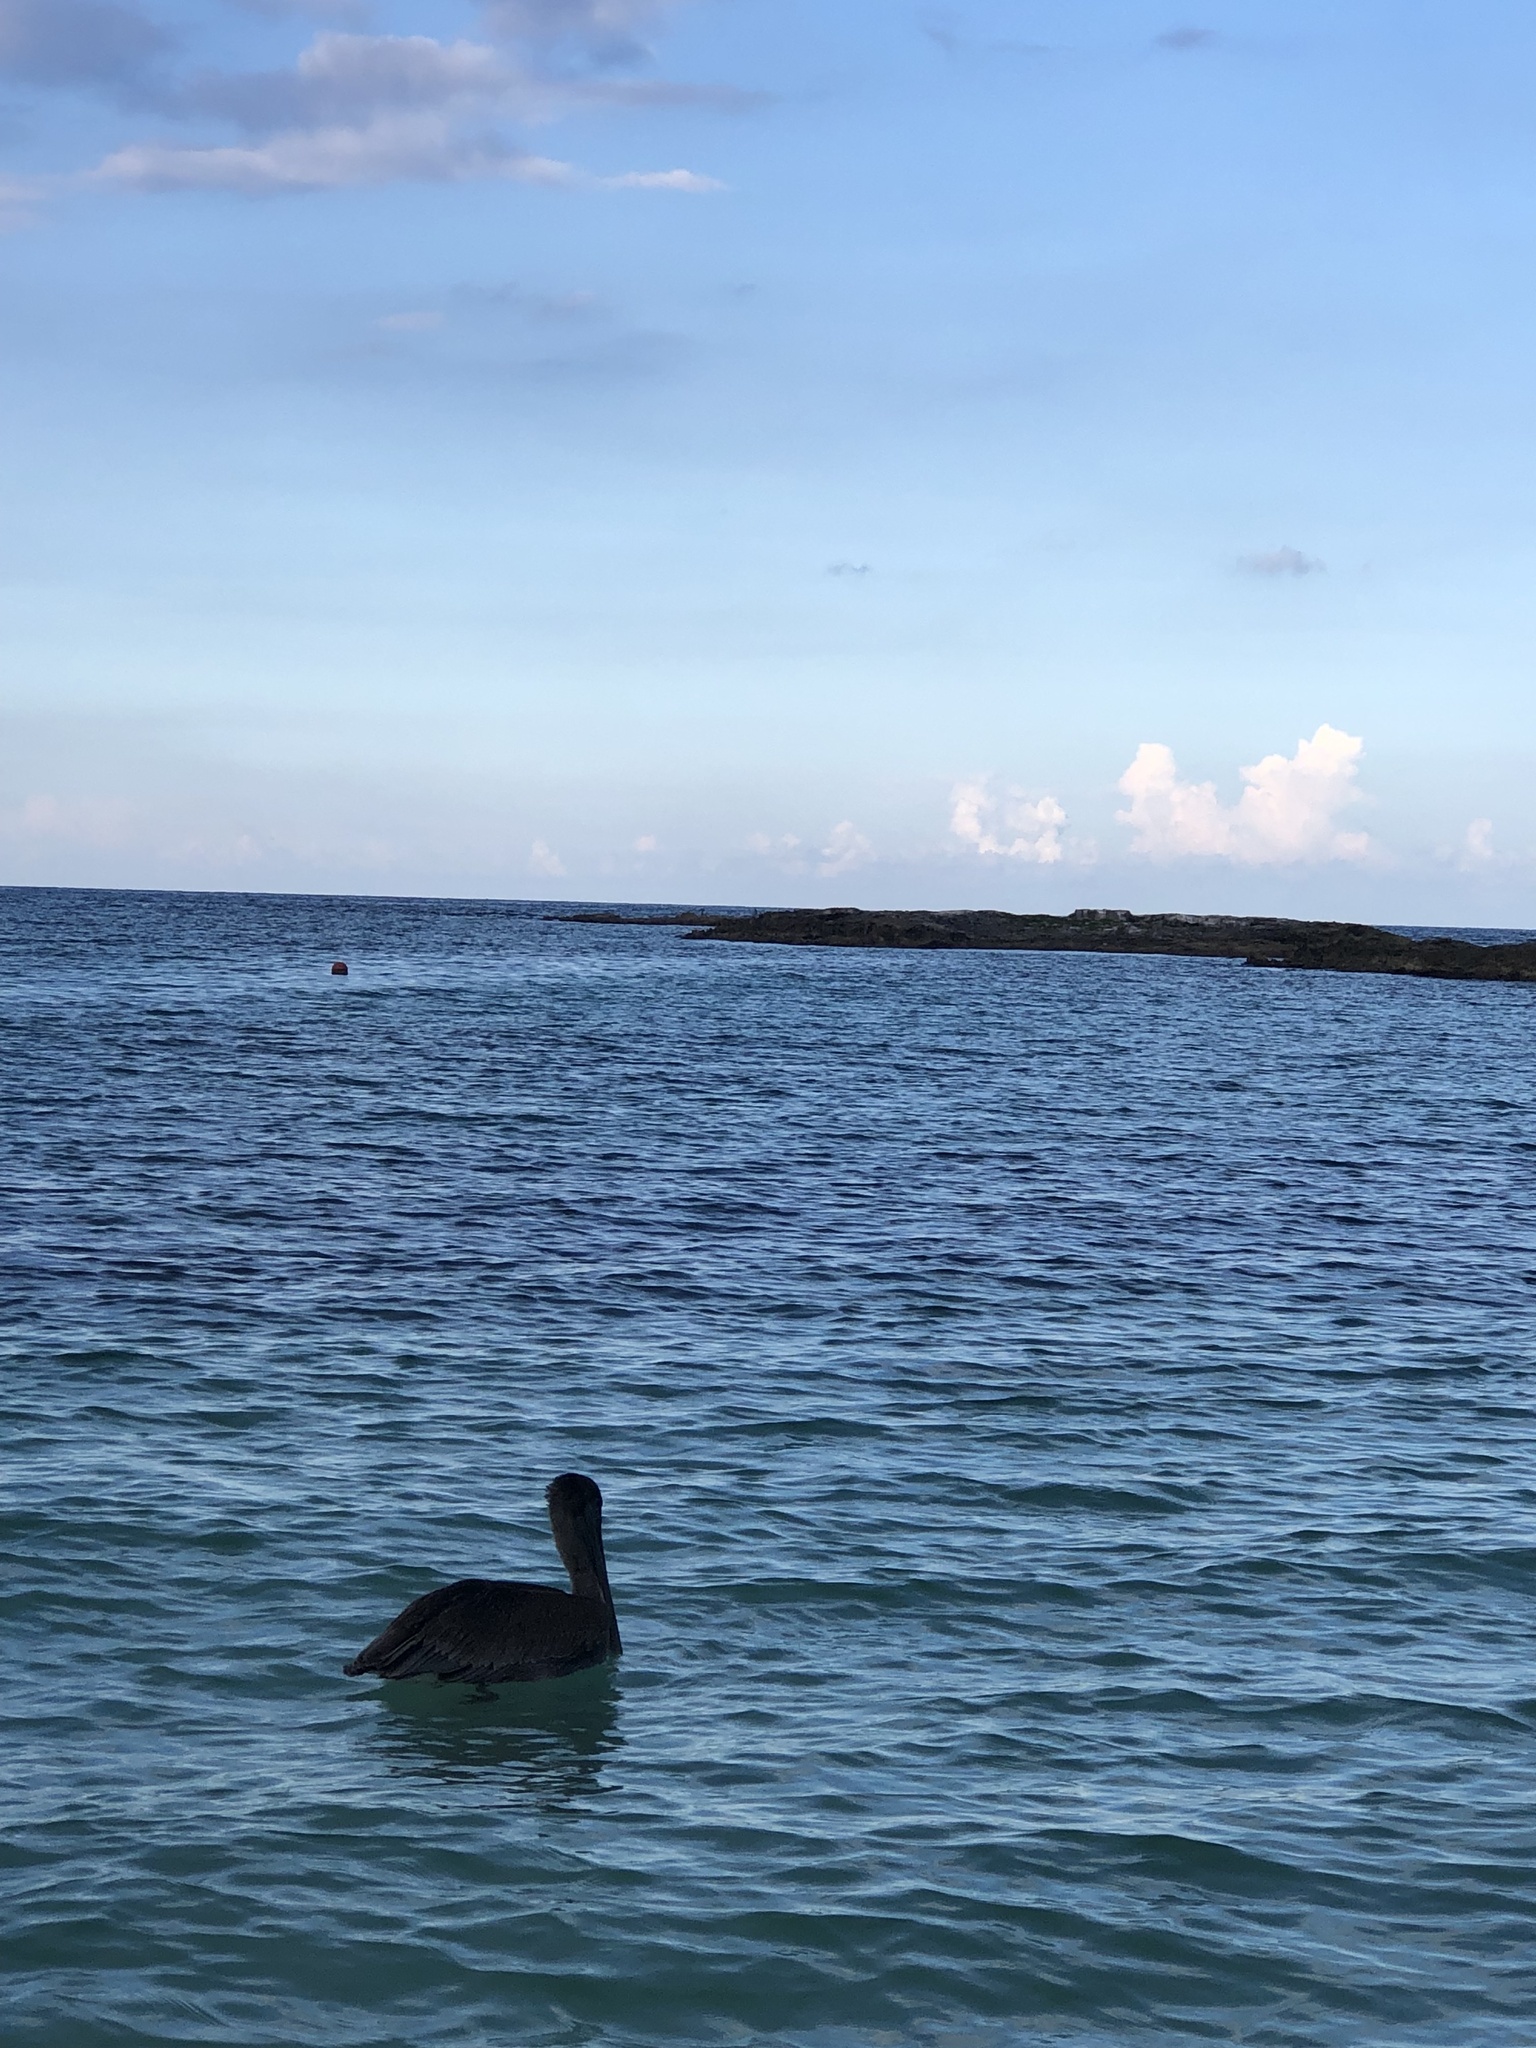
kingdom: Animalia
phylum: Chordata
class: Aves
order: Pelecaniformes
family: Pelecanidae
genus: Pelecanus
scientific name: Pelecanus occidentalis
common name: Brown pelican
